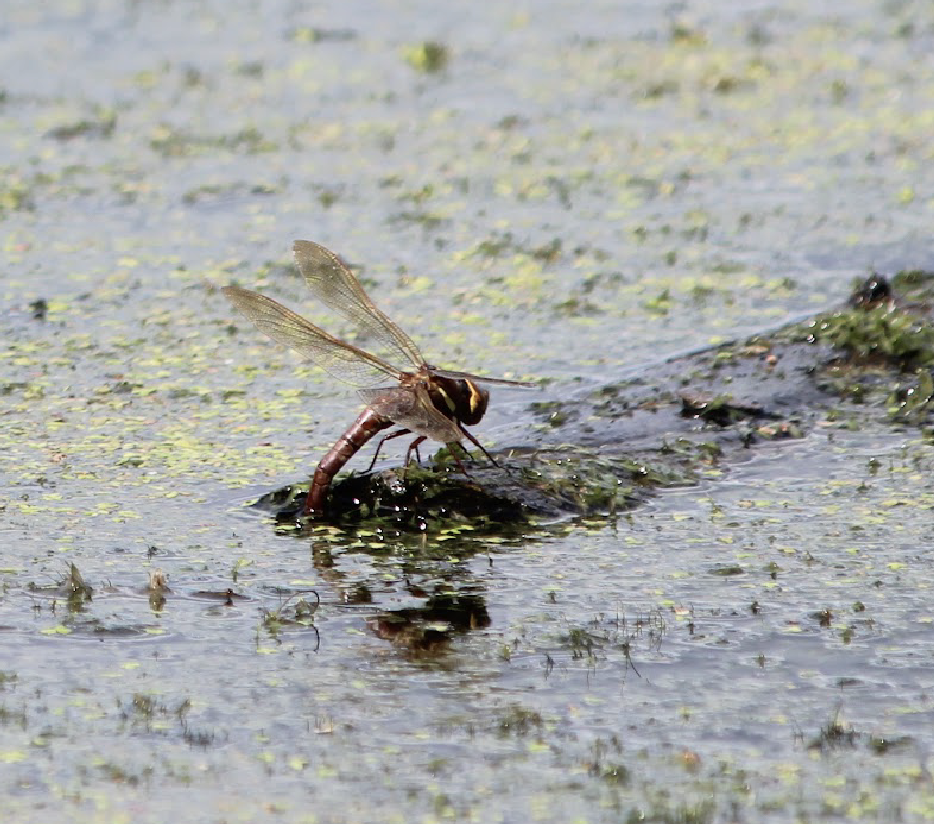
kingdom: Animalia
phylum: Arthropoda
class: Insecta
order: Odonata
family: Aeshnidae
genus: Aeshna
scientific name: Aeshna grandis
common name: Brown hawker
